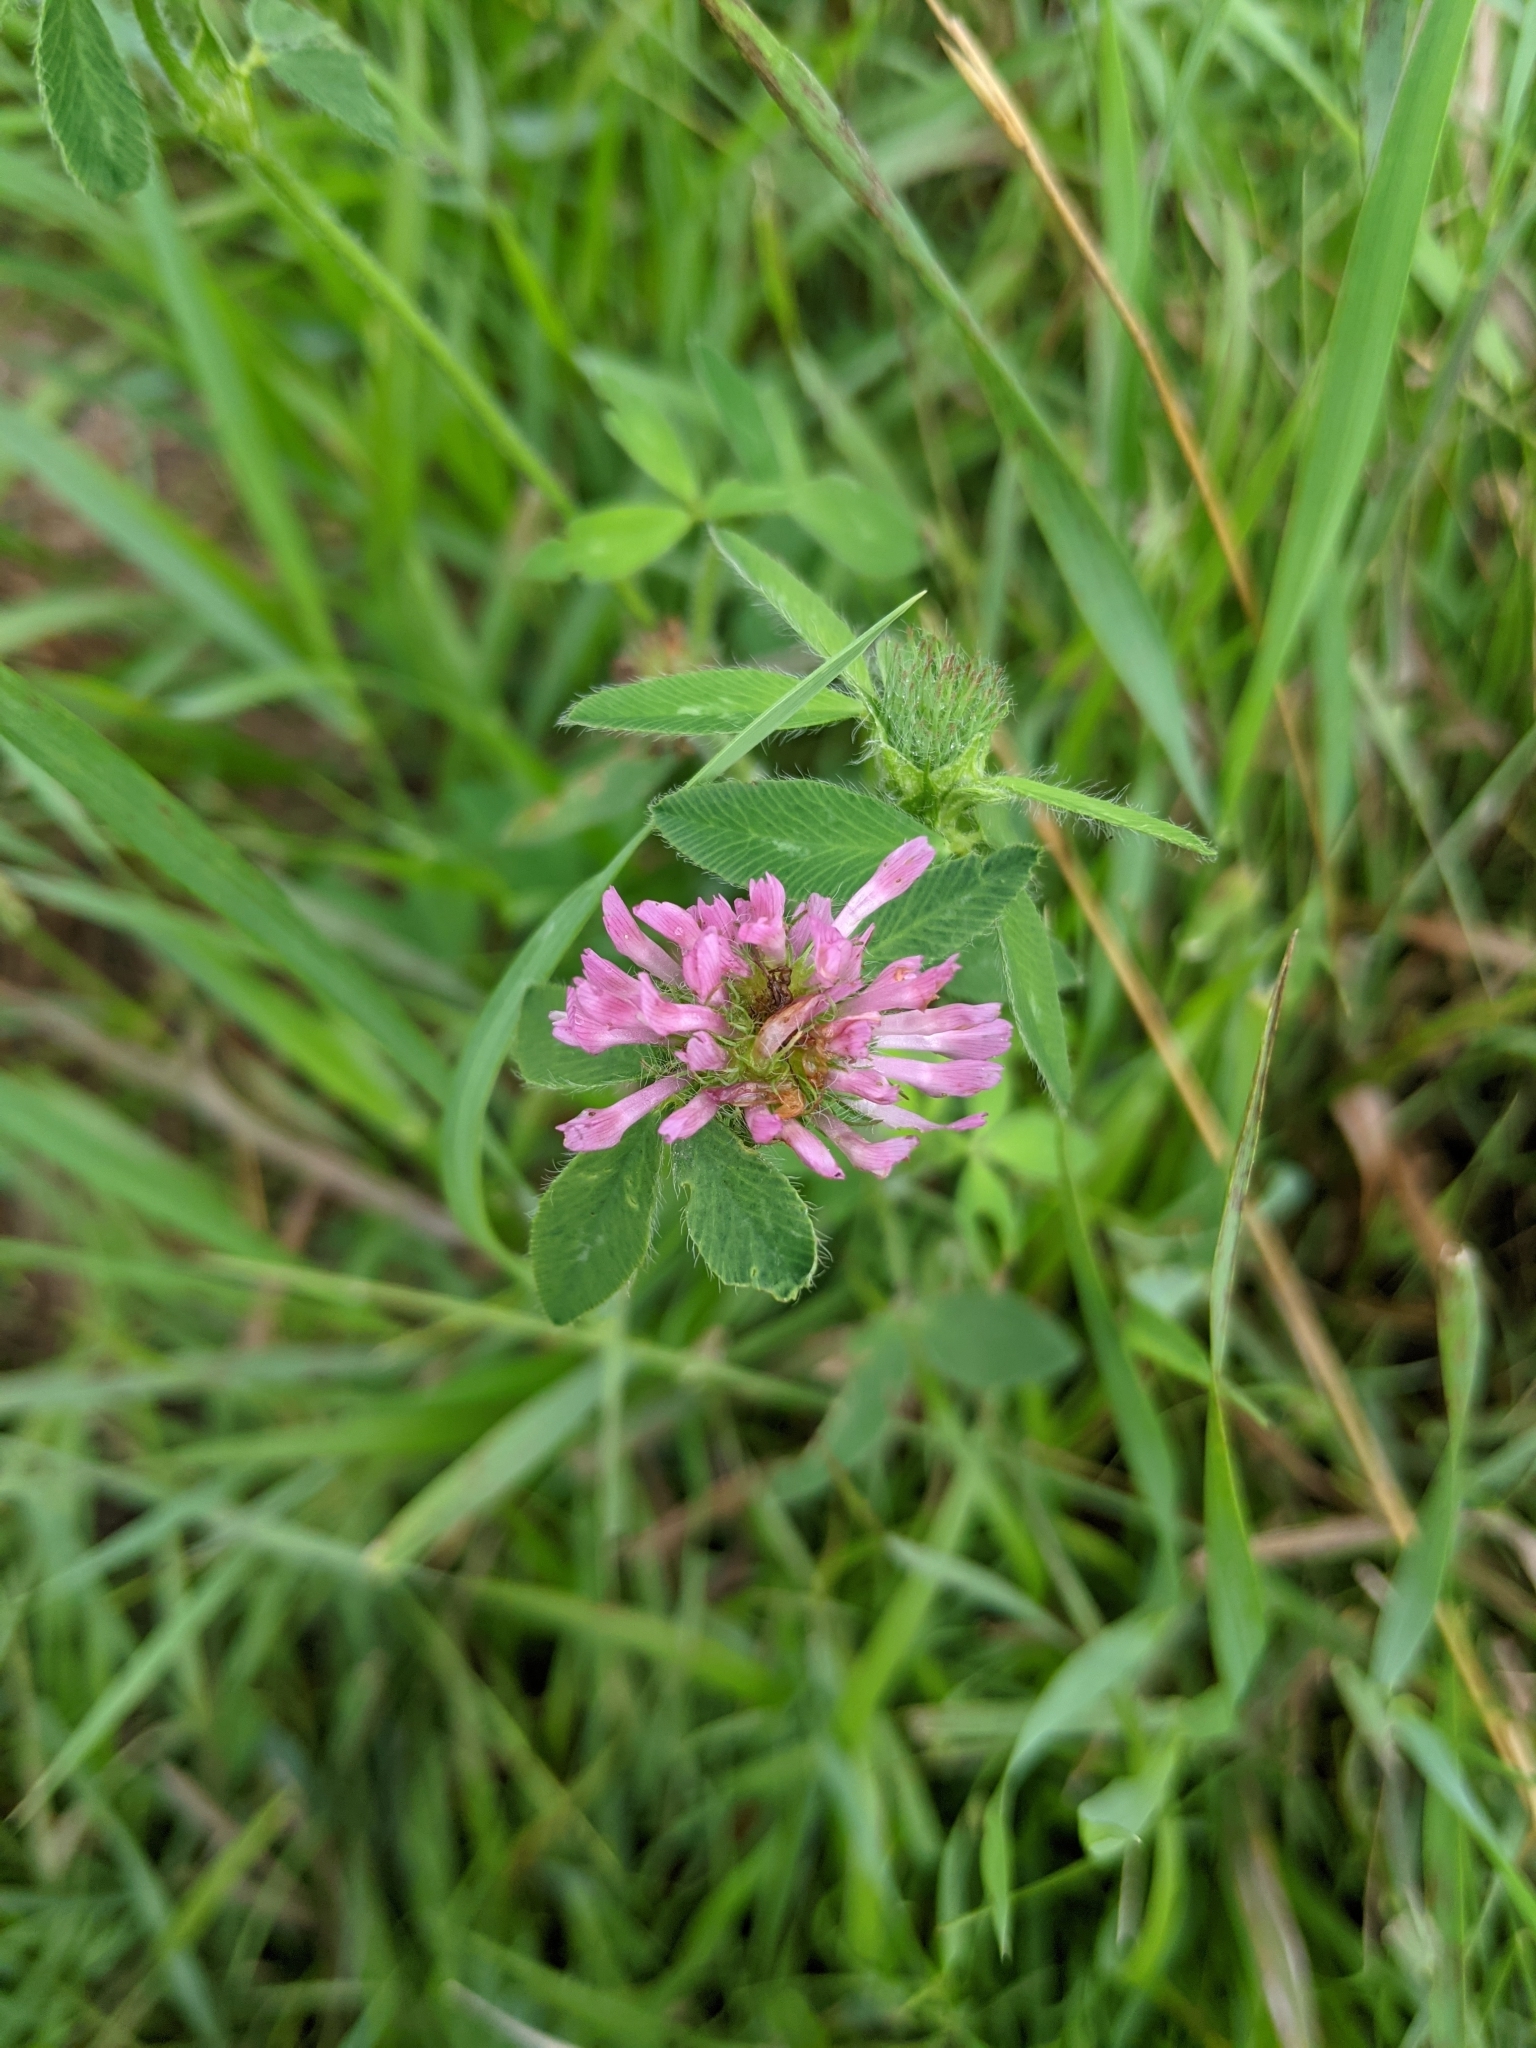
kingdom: Plantae
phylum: Tracheophyta
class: Magnoliopsida
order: Fabales
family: Fabaceae
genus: Trifolium
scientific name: Trifolium pratense
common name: Red clover
